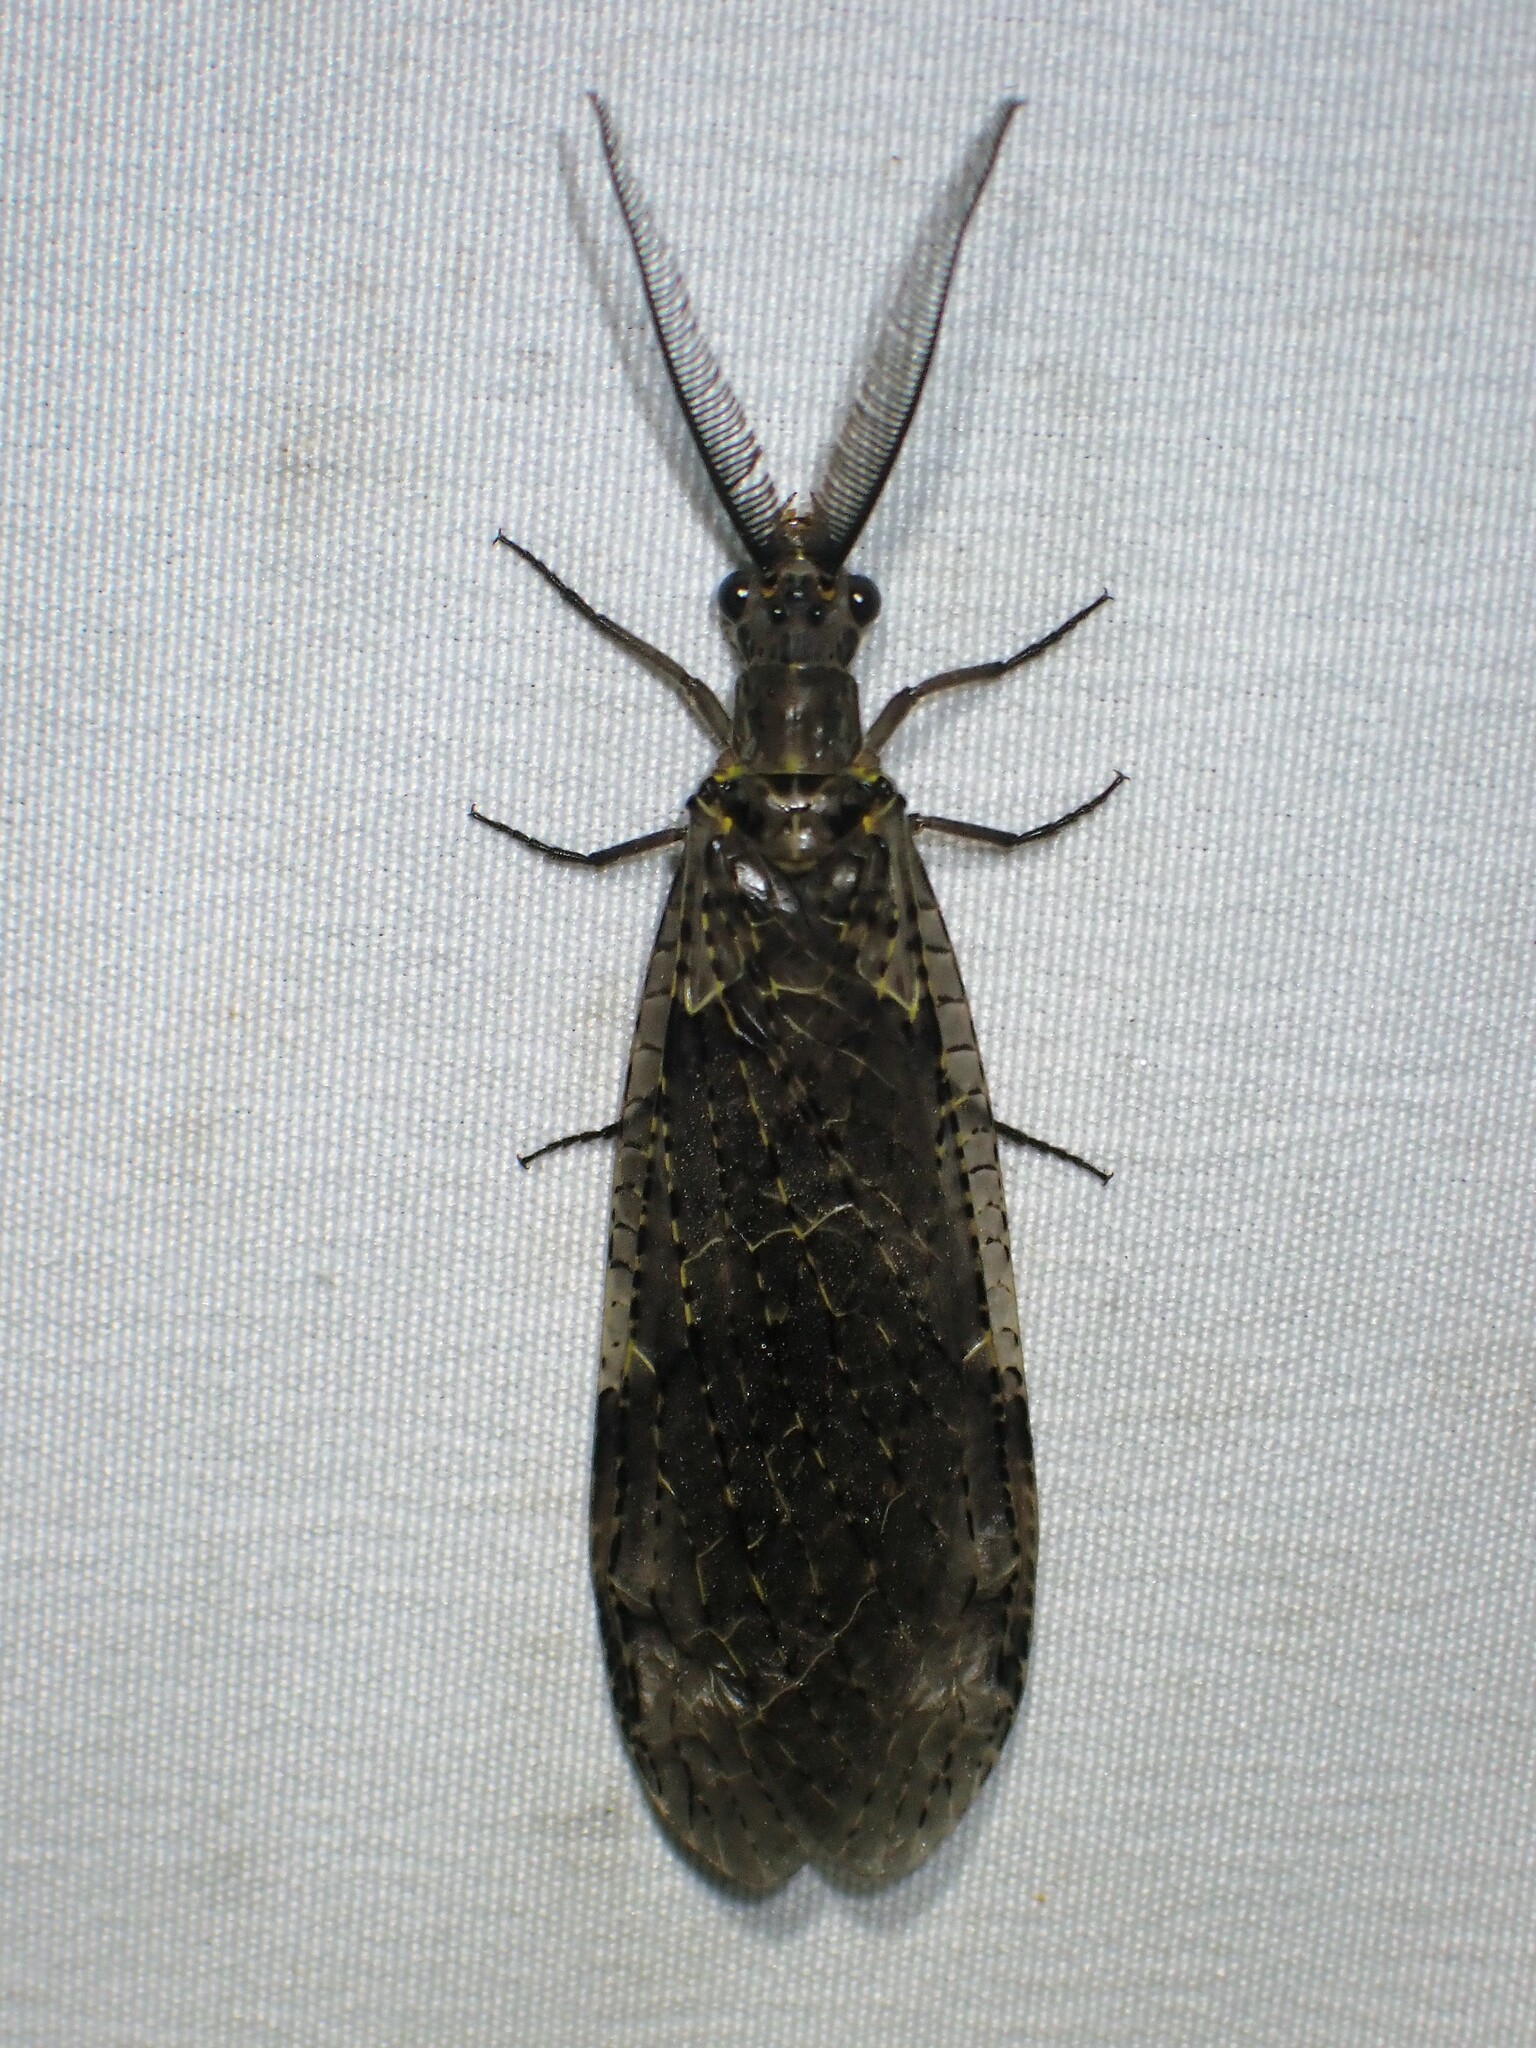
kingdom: Animalia
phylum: Arthropoda
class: Insecta
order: Megaloptera
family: Corydalidae
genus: Chauliodes
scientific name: Chauliodes rastricornis
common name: Spring fishfly
